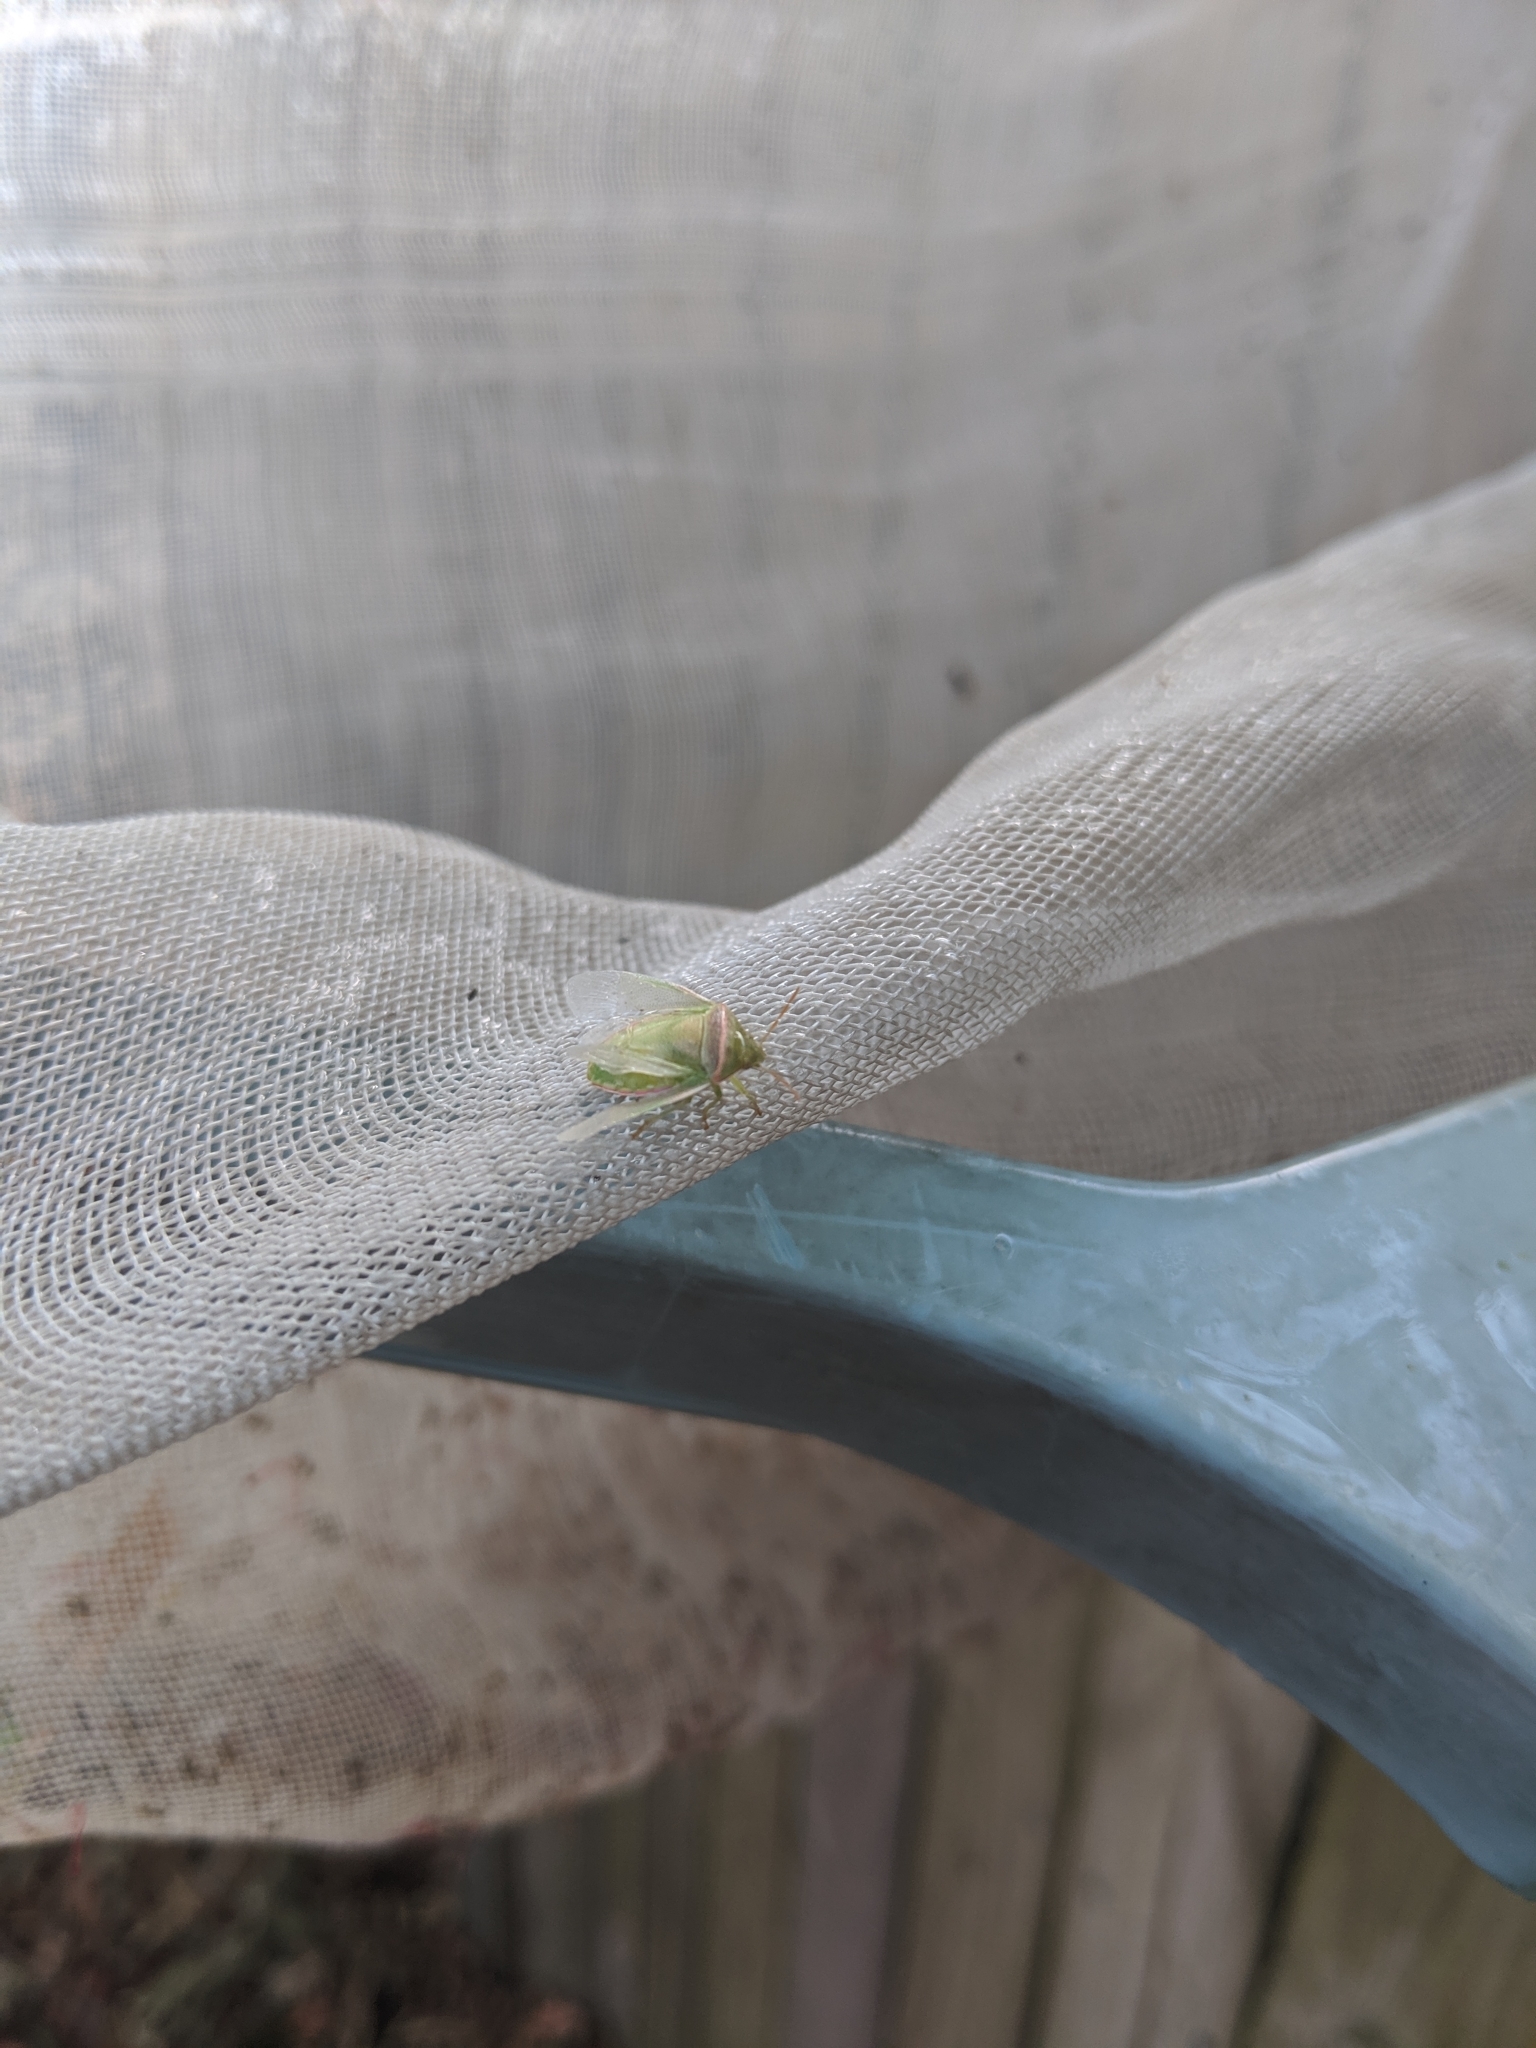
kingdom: Animalia
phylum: Arthropoda
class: Insecta
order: Hemiptera
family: Pentatomidae
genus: Piezodorus
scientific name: Piezodorus oceanicus
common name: Stink bug
